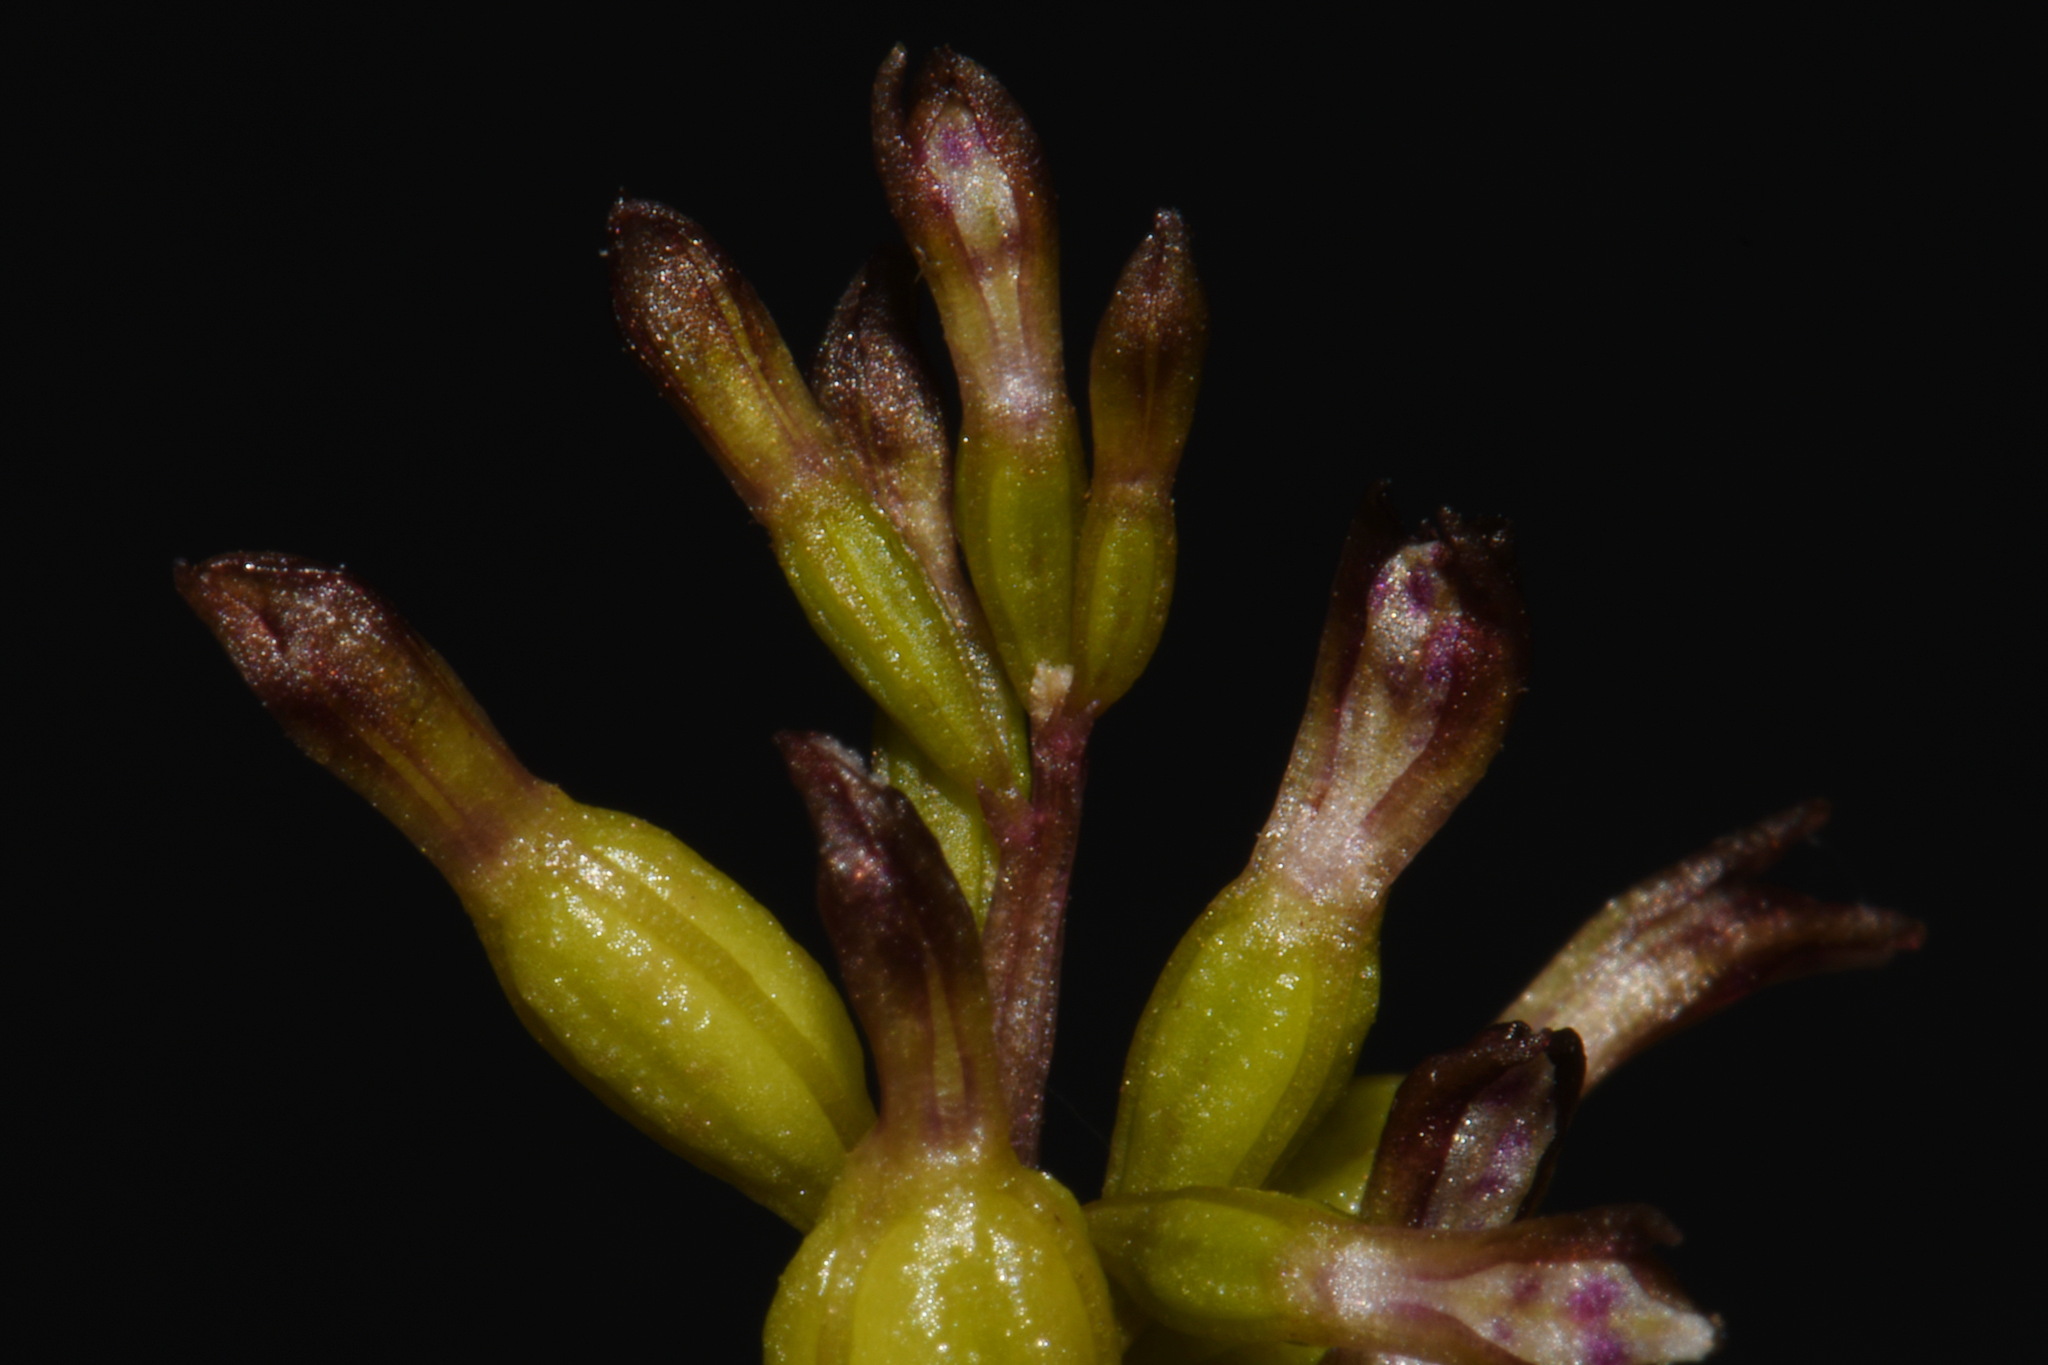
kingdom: Plantae
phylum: Tracheophyta
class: Liliopsida
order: Asparagales
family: Orchidaceae
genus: Corallorhiza
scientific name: Corallorhiza odontorhiza
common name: Autumn coralroot
